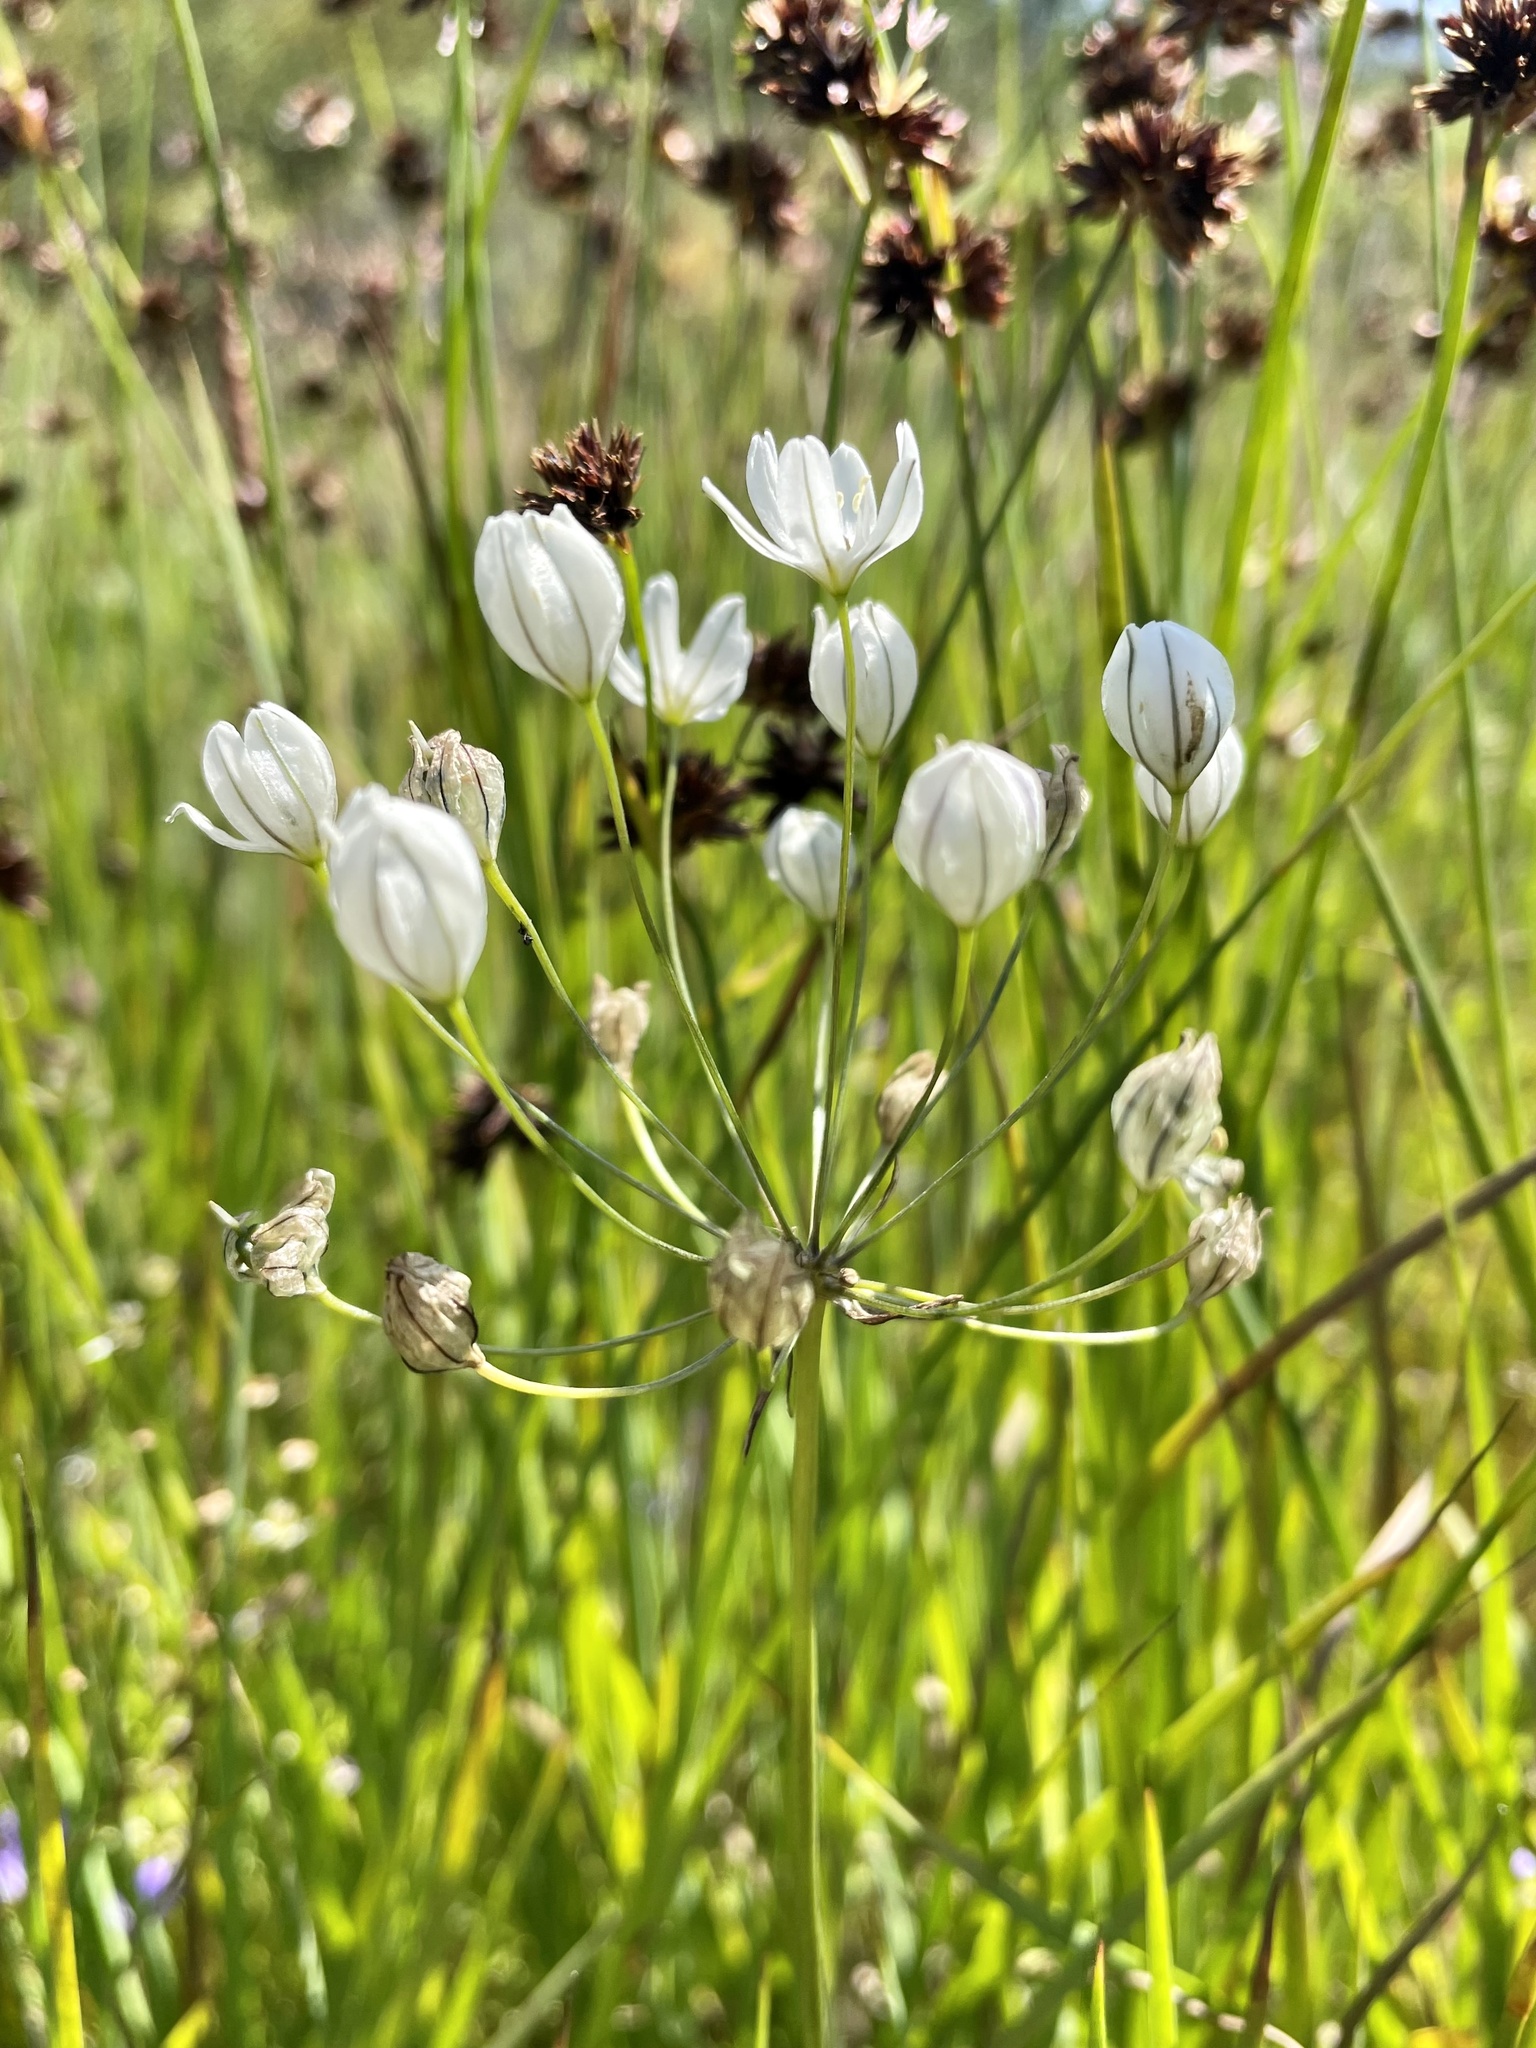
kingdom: Plantae
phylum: Tracheophyta
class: Liliopsida
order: Asparagales
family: Asparagaceae
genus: Triteleia
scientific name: Triteleia hyacinthina
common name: White brodiaea
